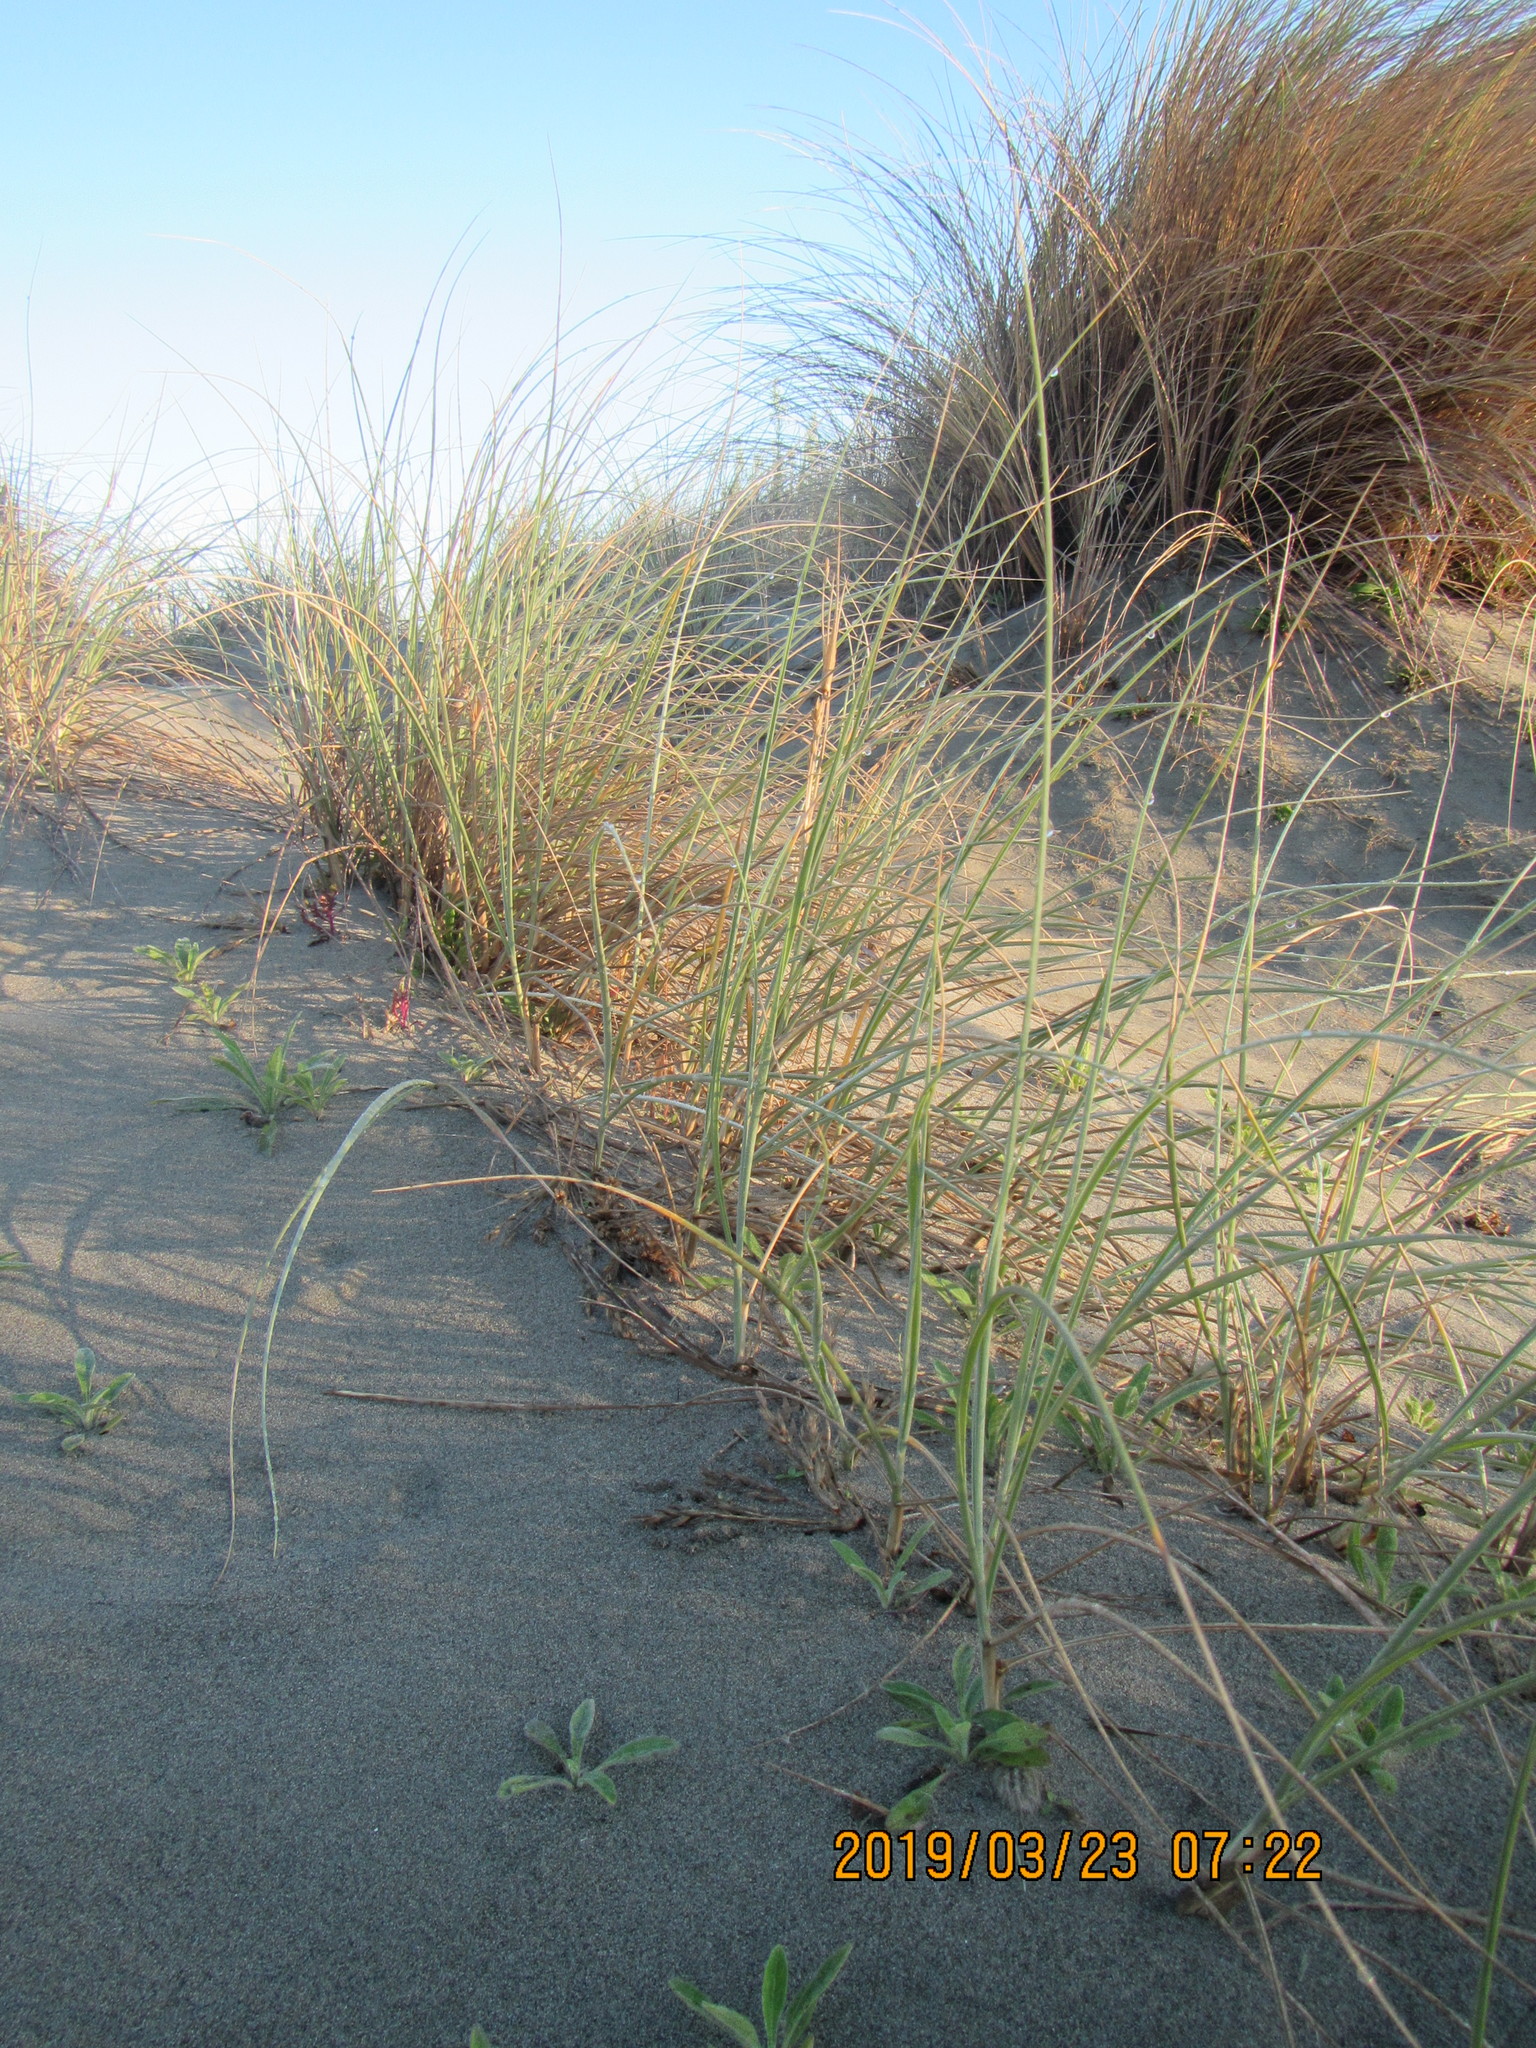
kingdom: Plantae
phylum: Tracheophyta
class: Liliopsida
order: Poales
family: Poaceae
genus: Spinifex
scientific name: Spinifex sericeus
